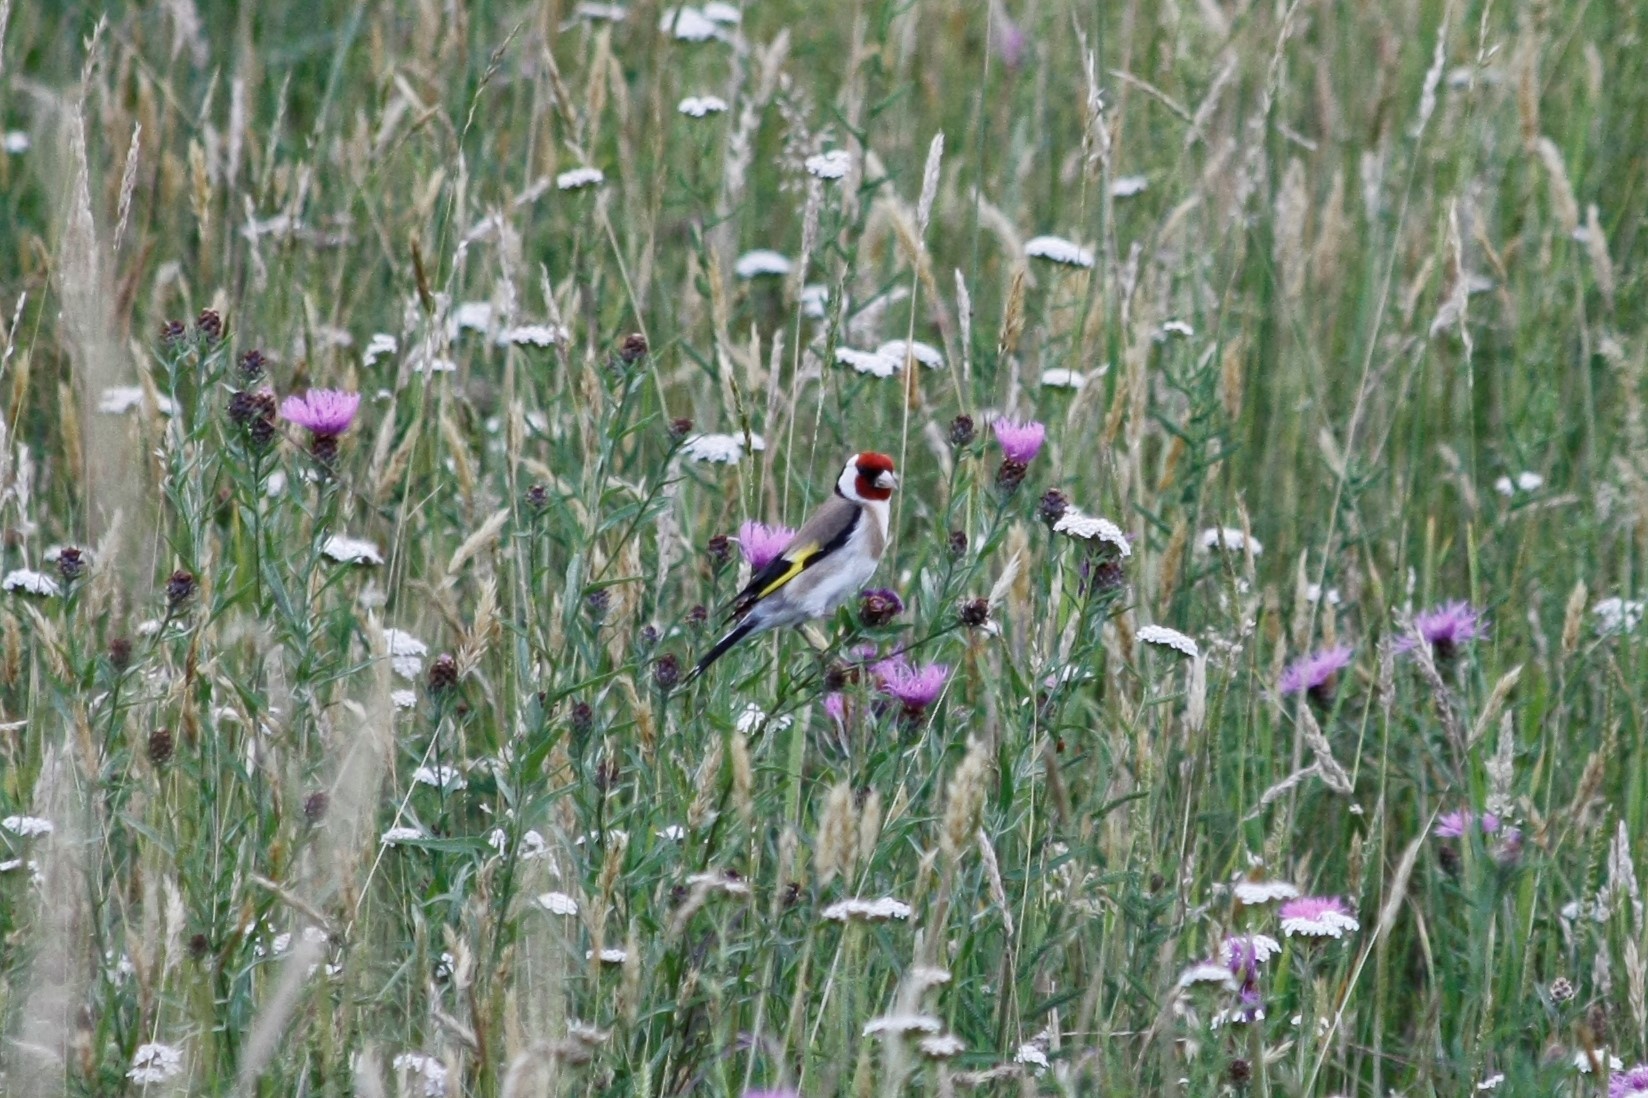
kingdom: Animalia
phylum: Chordata
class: Aves
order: Passeriformes
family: Fringillidae
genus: Carduelis
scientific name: Carduelis carduelis
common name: European goldfinch
